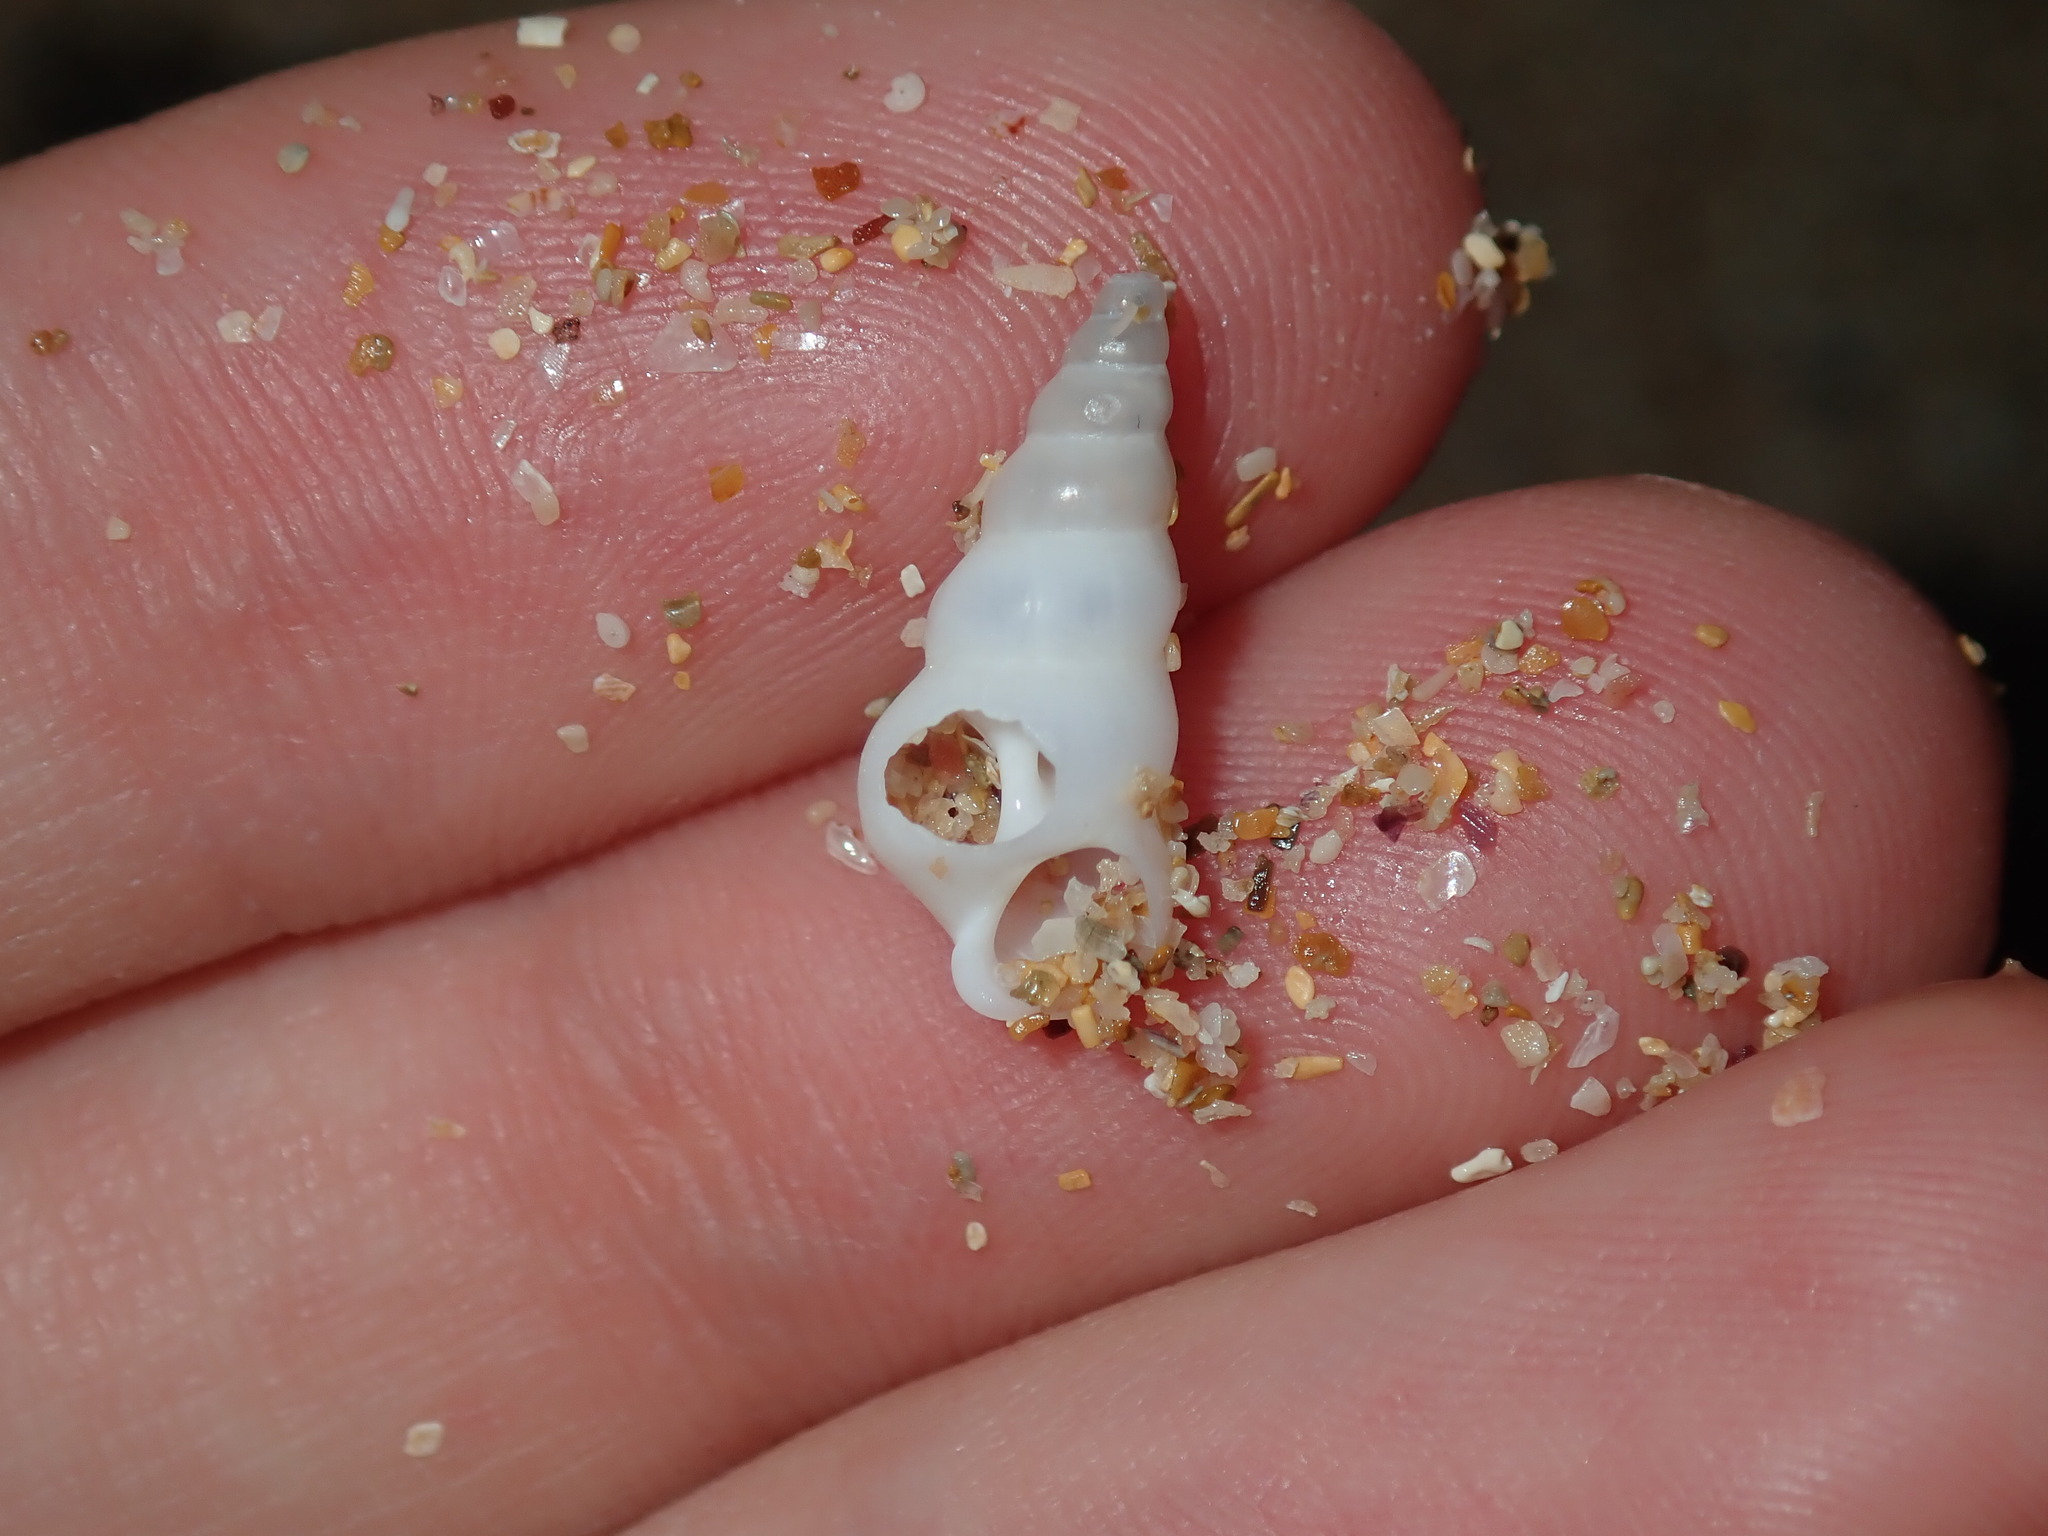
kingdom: Animalia
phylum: Mollusca
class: Gastropoda
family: Epitoniidae
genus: Opalia
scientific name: Opalia ballinensis
